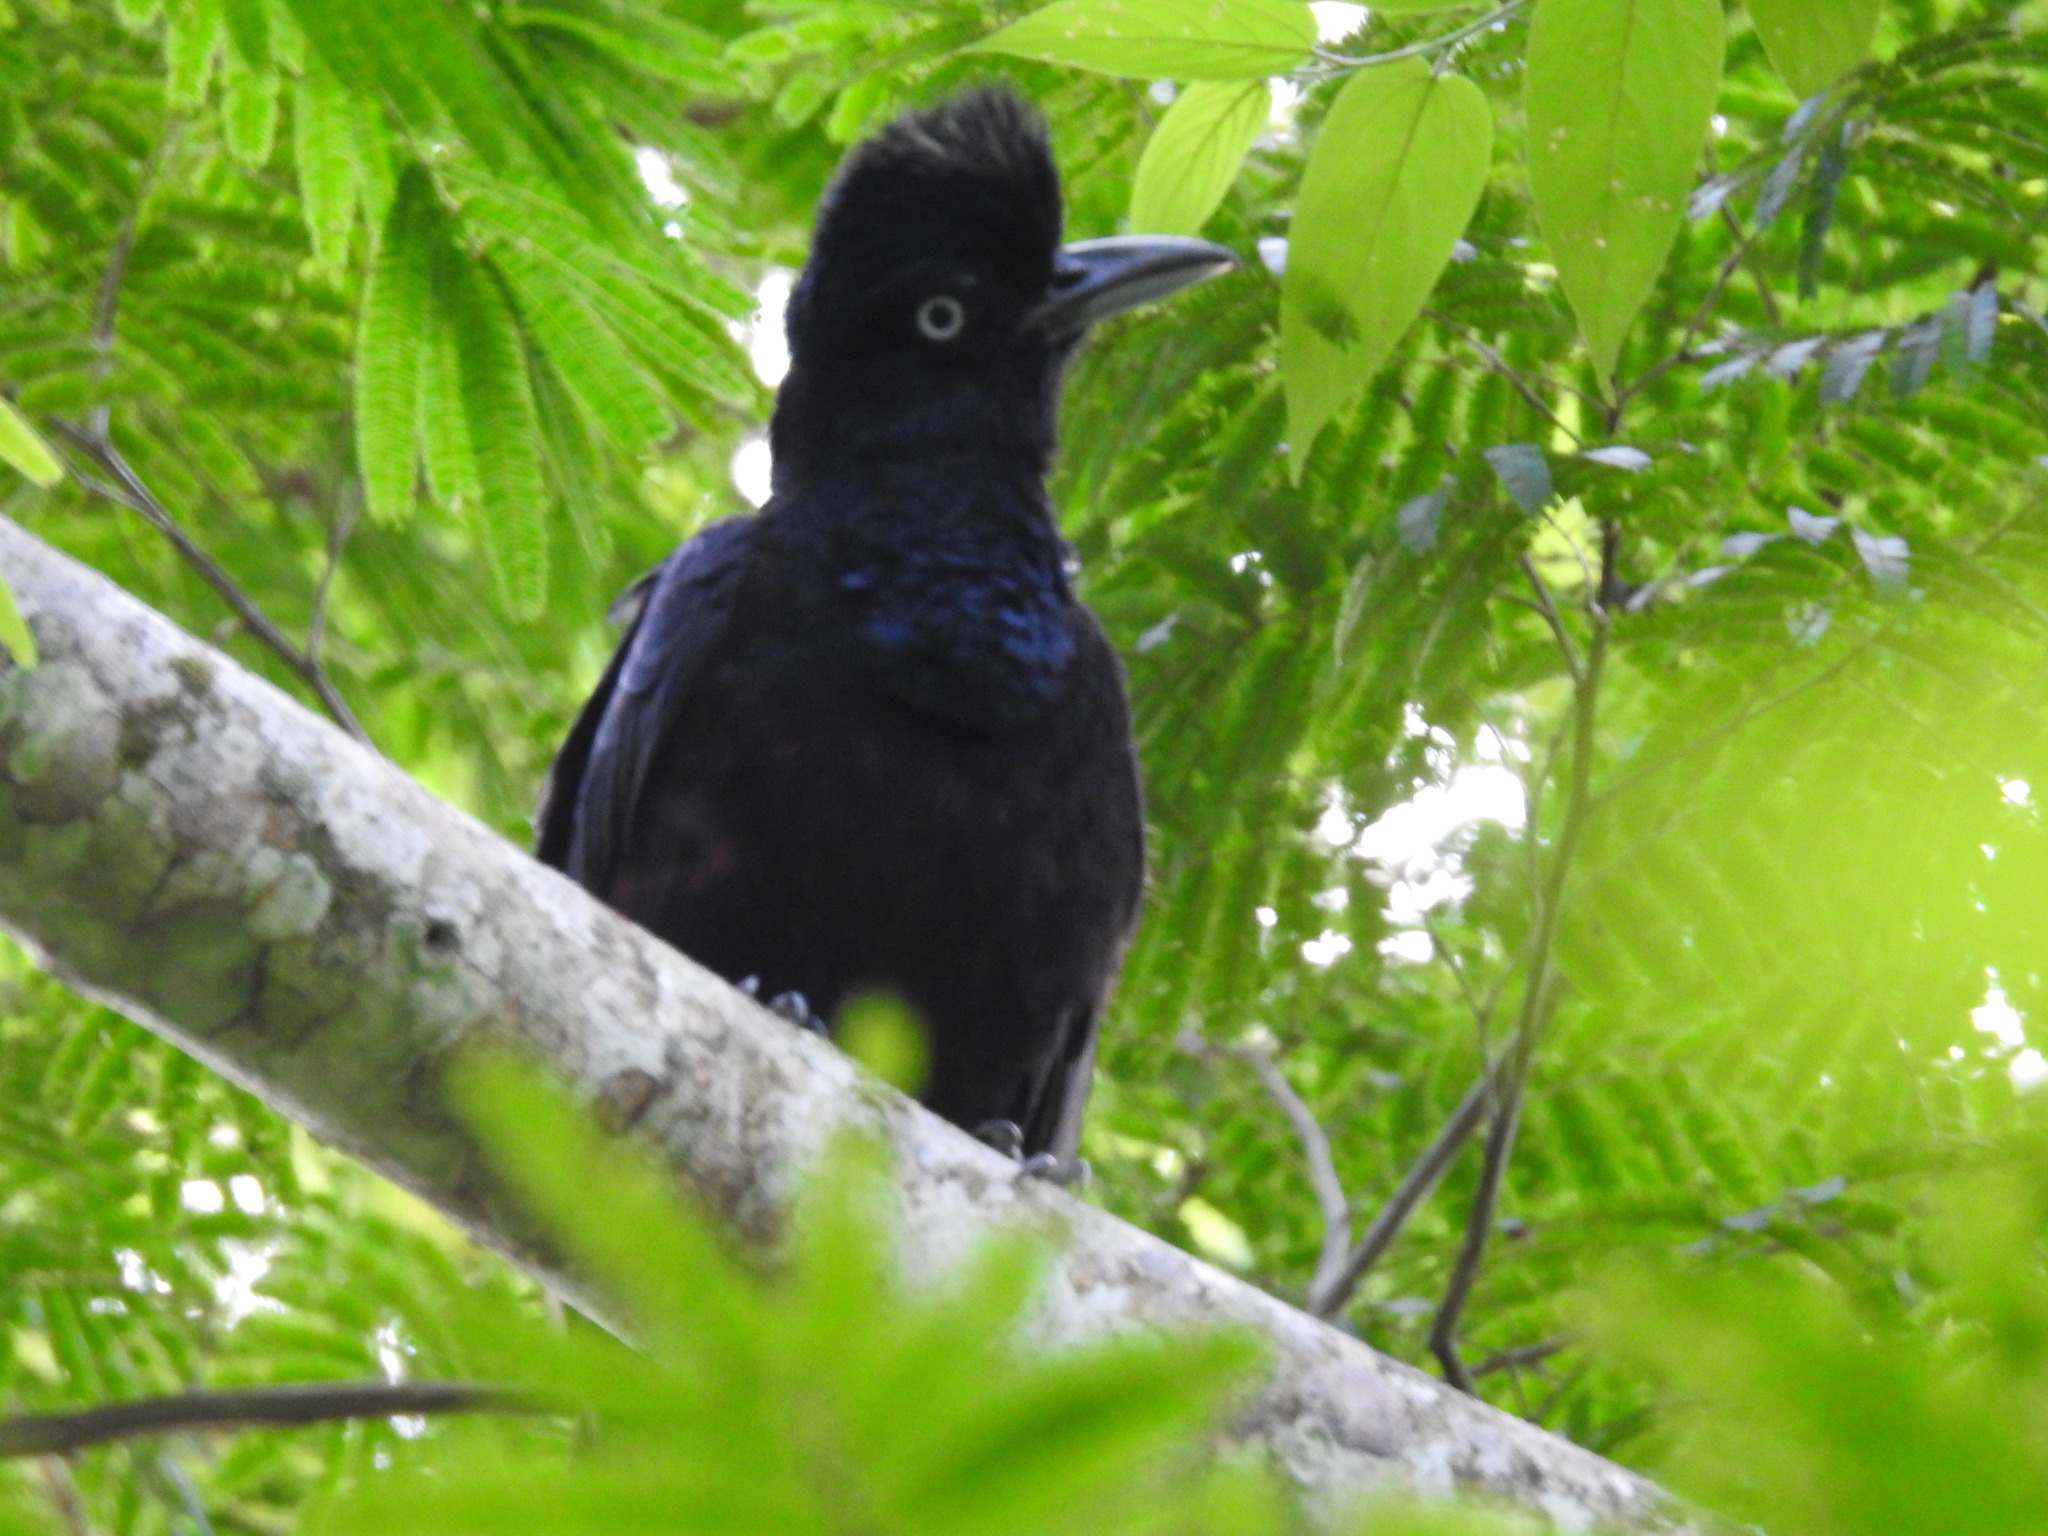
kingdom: Animalia
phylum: Chordata
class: Aves
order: Passeriformes
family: Cotingidae
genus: Cephalopterus
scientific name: Cephalopterus ornatus
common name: Amazonian umbrellabird
